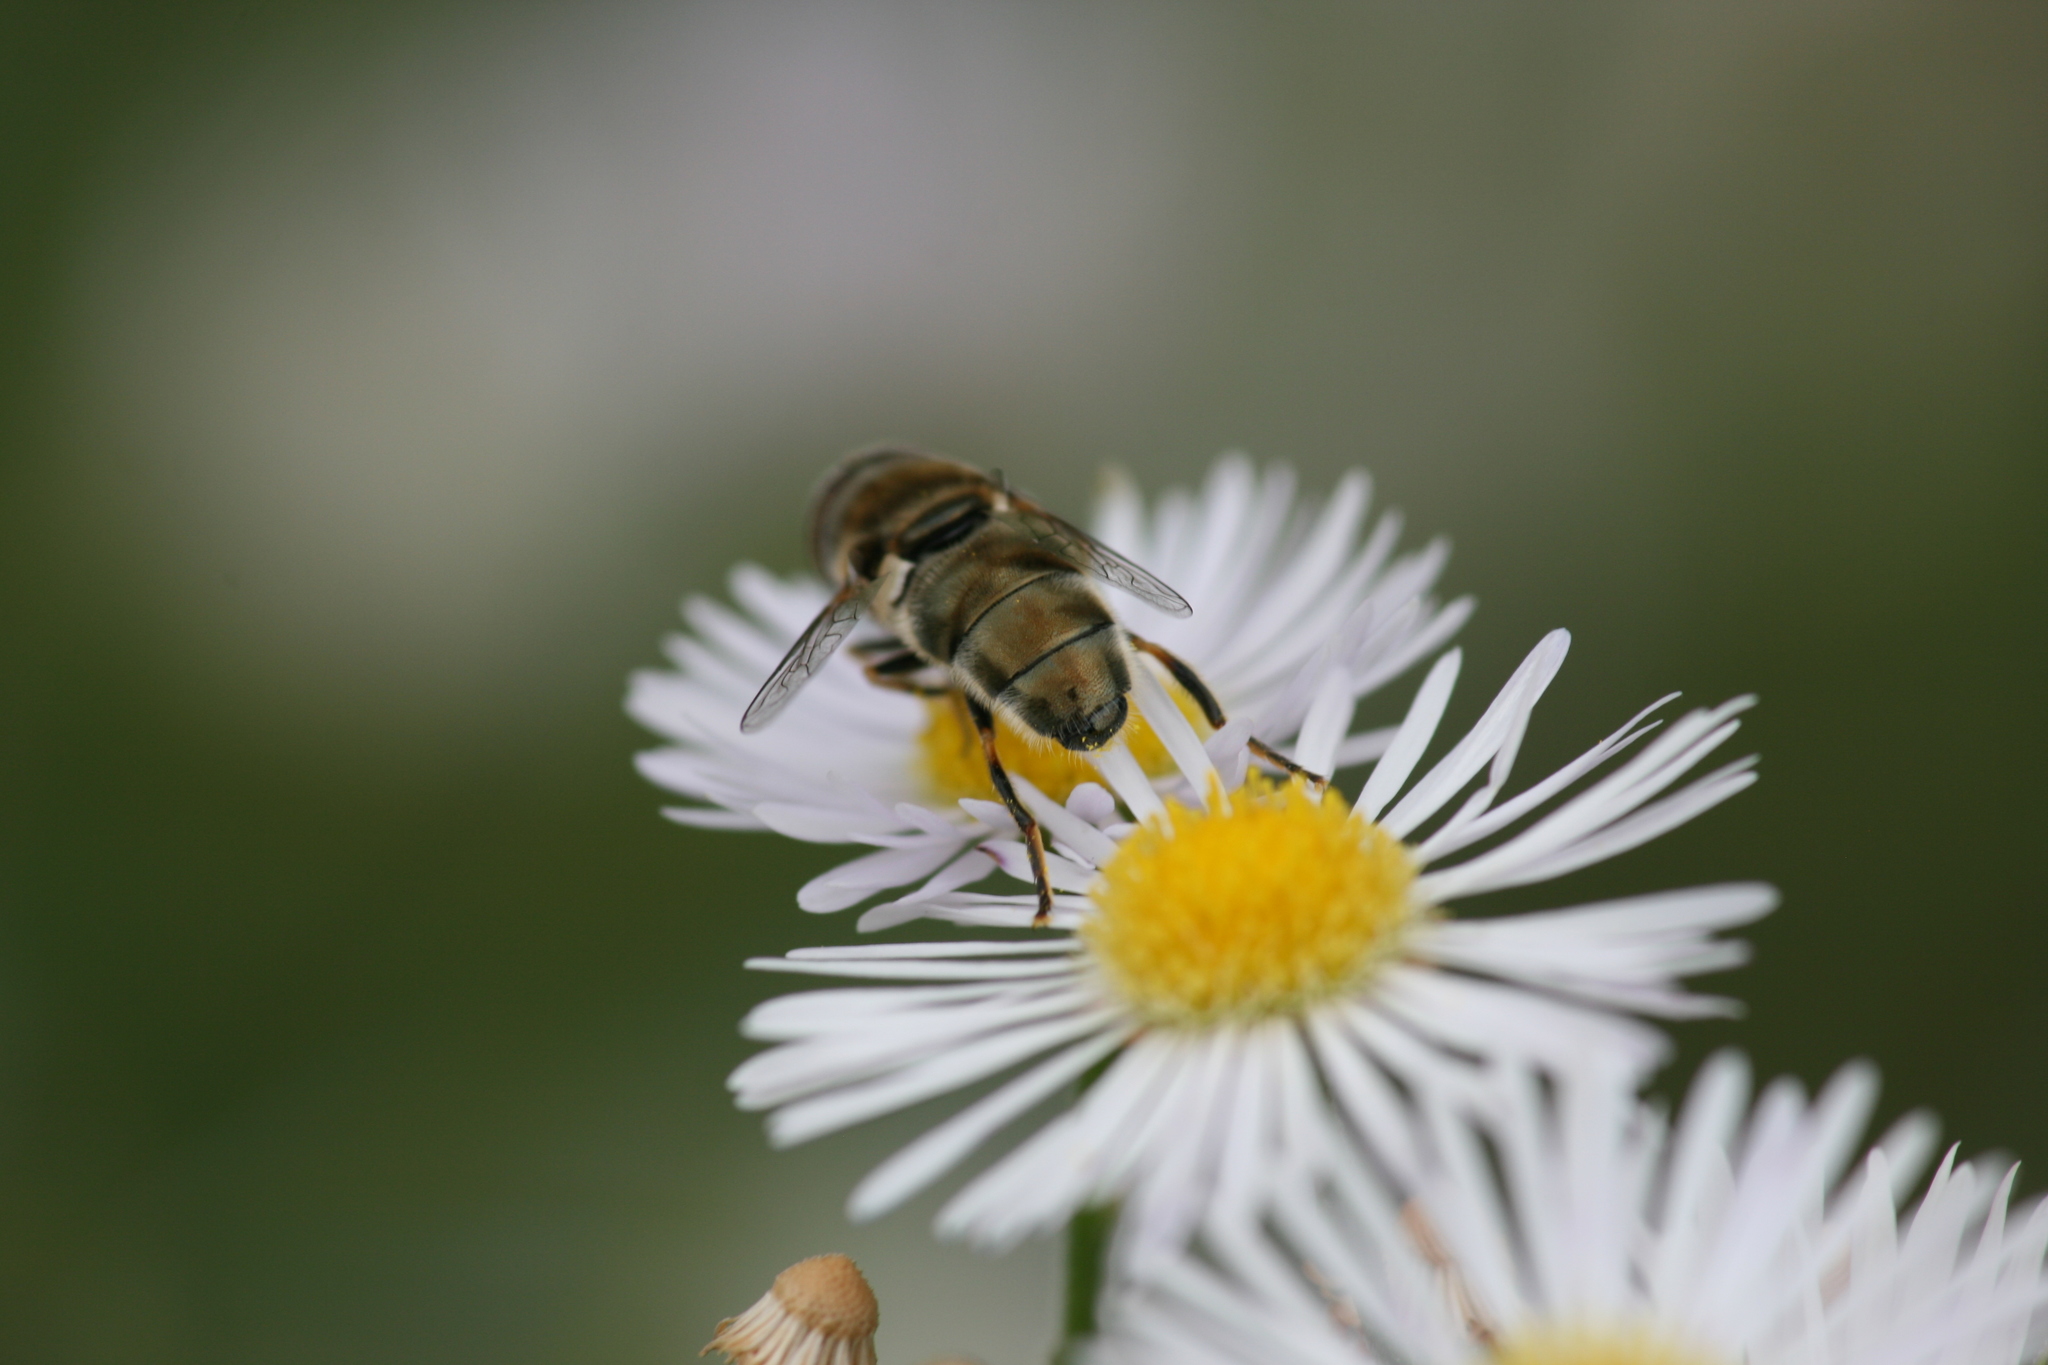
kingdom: Animalia
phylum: Arthropoda
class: Insecta
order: Diptera
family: Syrphidae
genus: Eristalinus
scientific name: Eristalinus aeneus
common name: Syrphid fly
